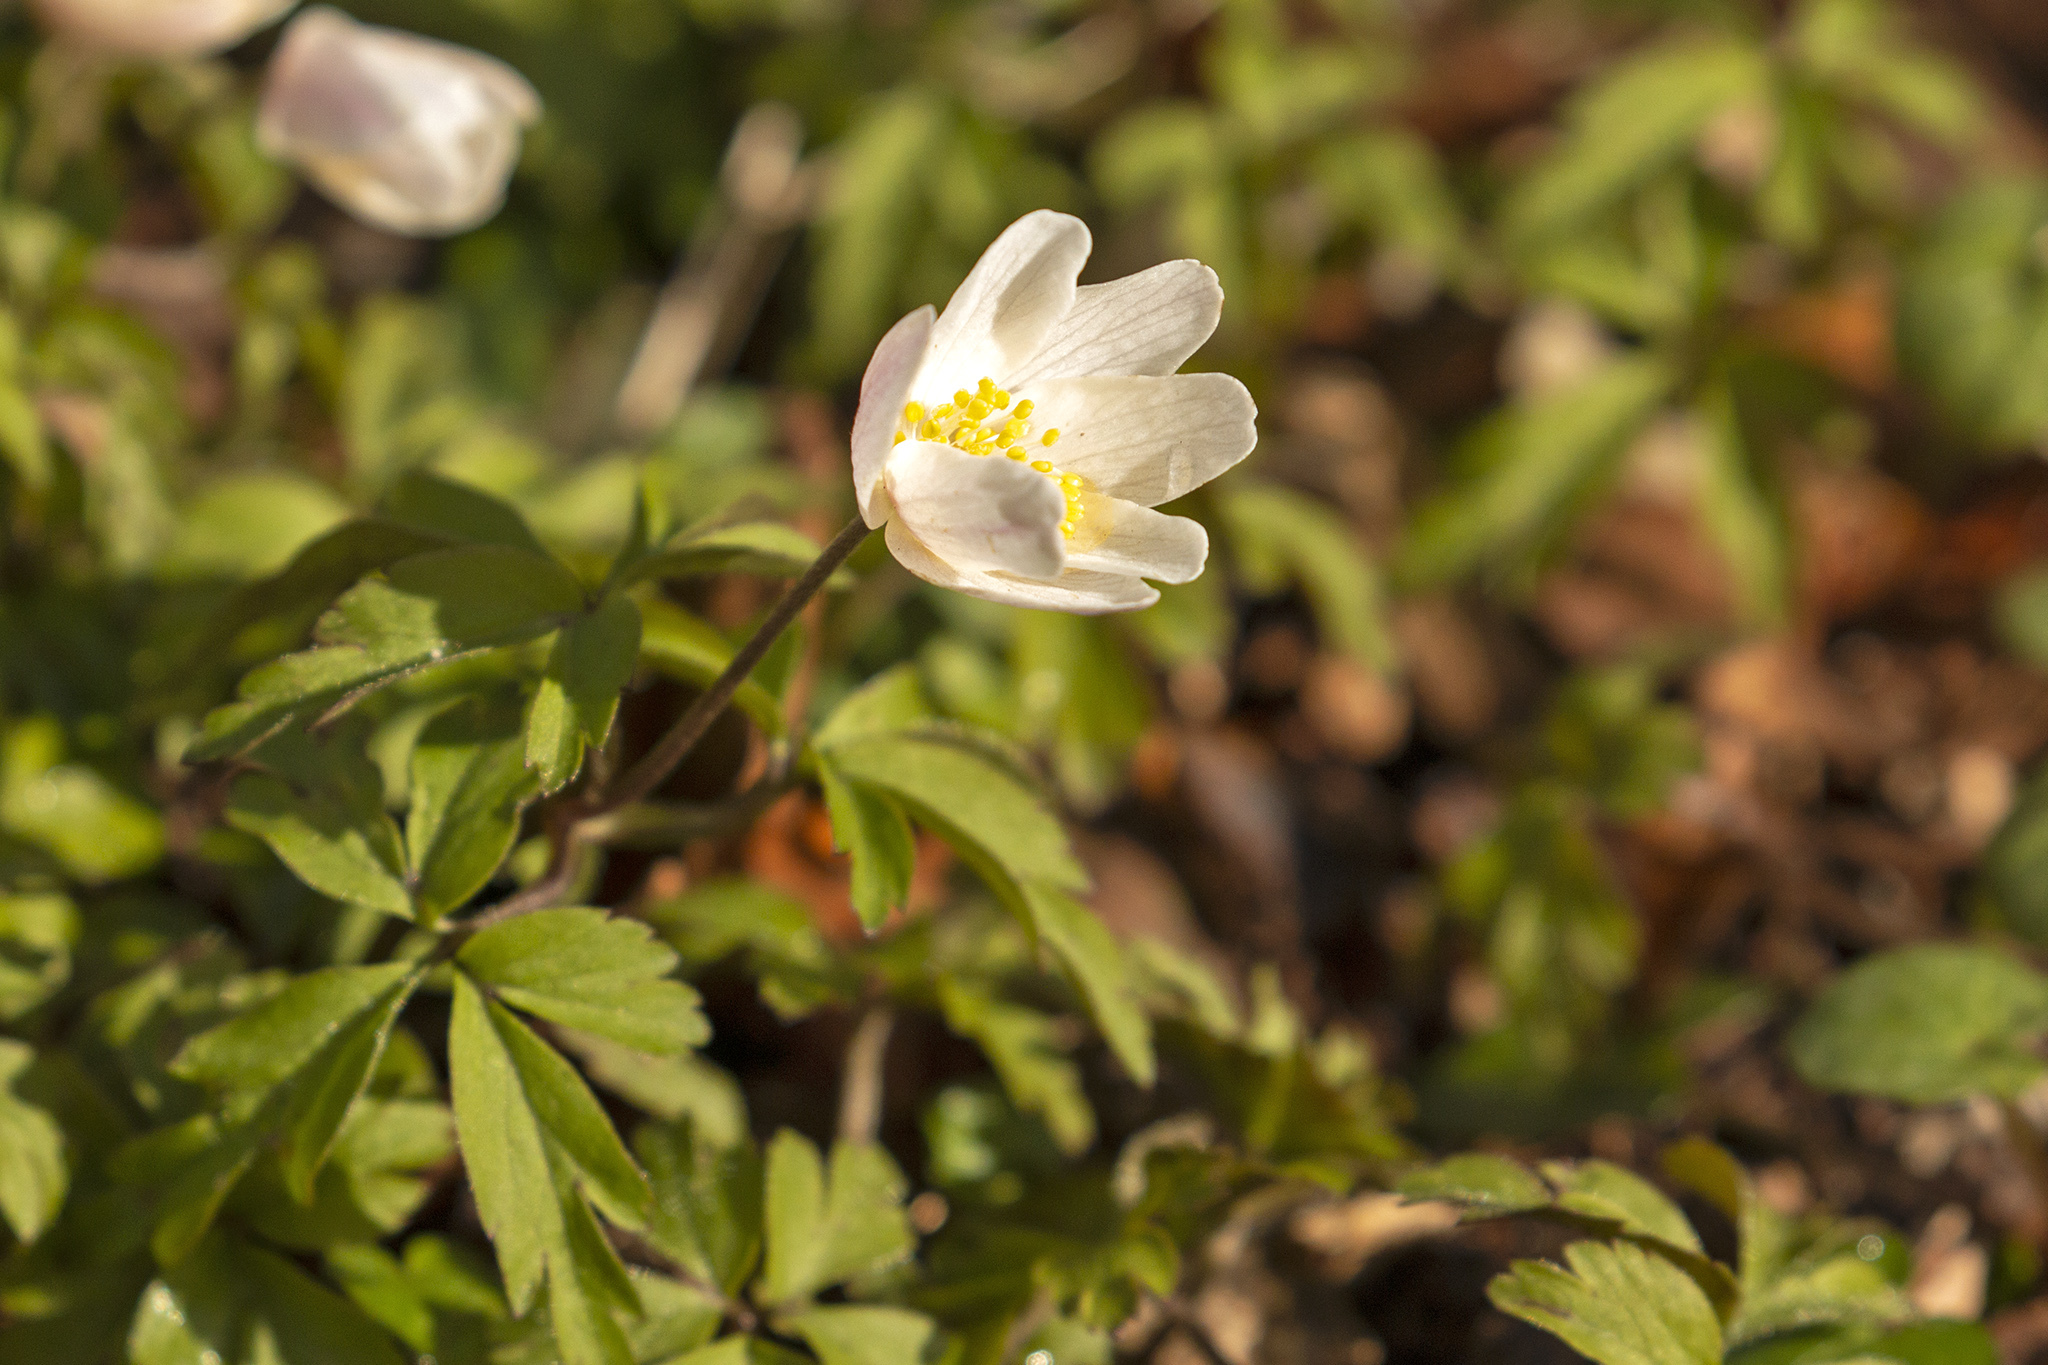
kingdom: Plantae
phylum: Tracheophyta
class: Magnoliopsida
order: Ranunculales
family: Ranunculaceae
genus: Anemone
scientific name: Anemone nemorosa
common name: Wood anemone
